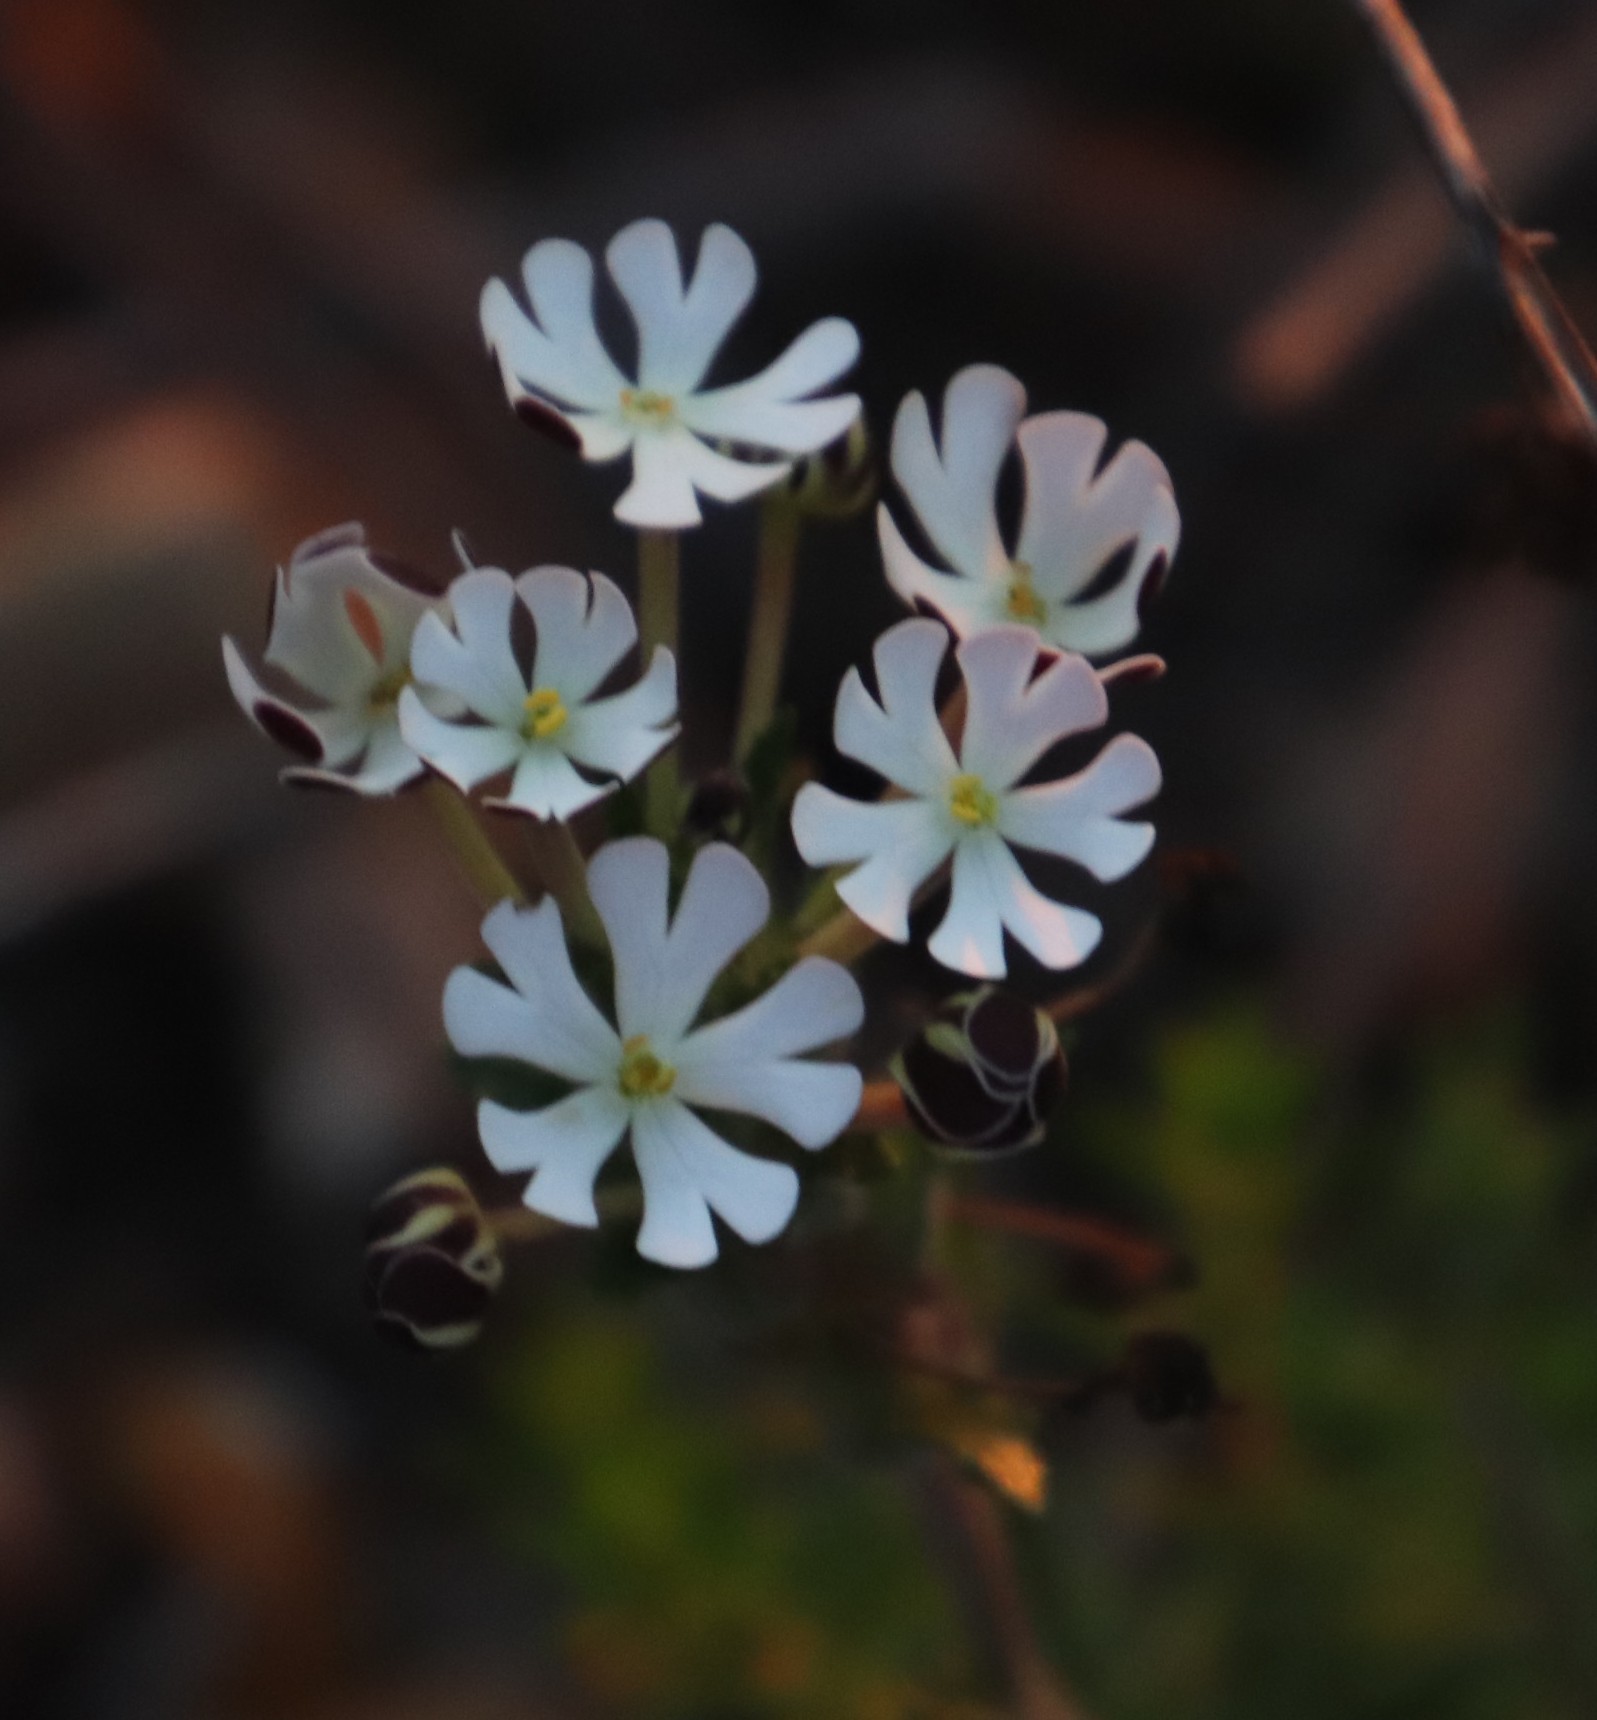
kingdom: Plantae
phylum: Tracheophyta
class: Magnoliopsida
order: Lamiales
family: Scrophulariaceae
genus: Zaluzianskya
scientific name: Zaluzianskya capensis
